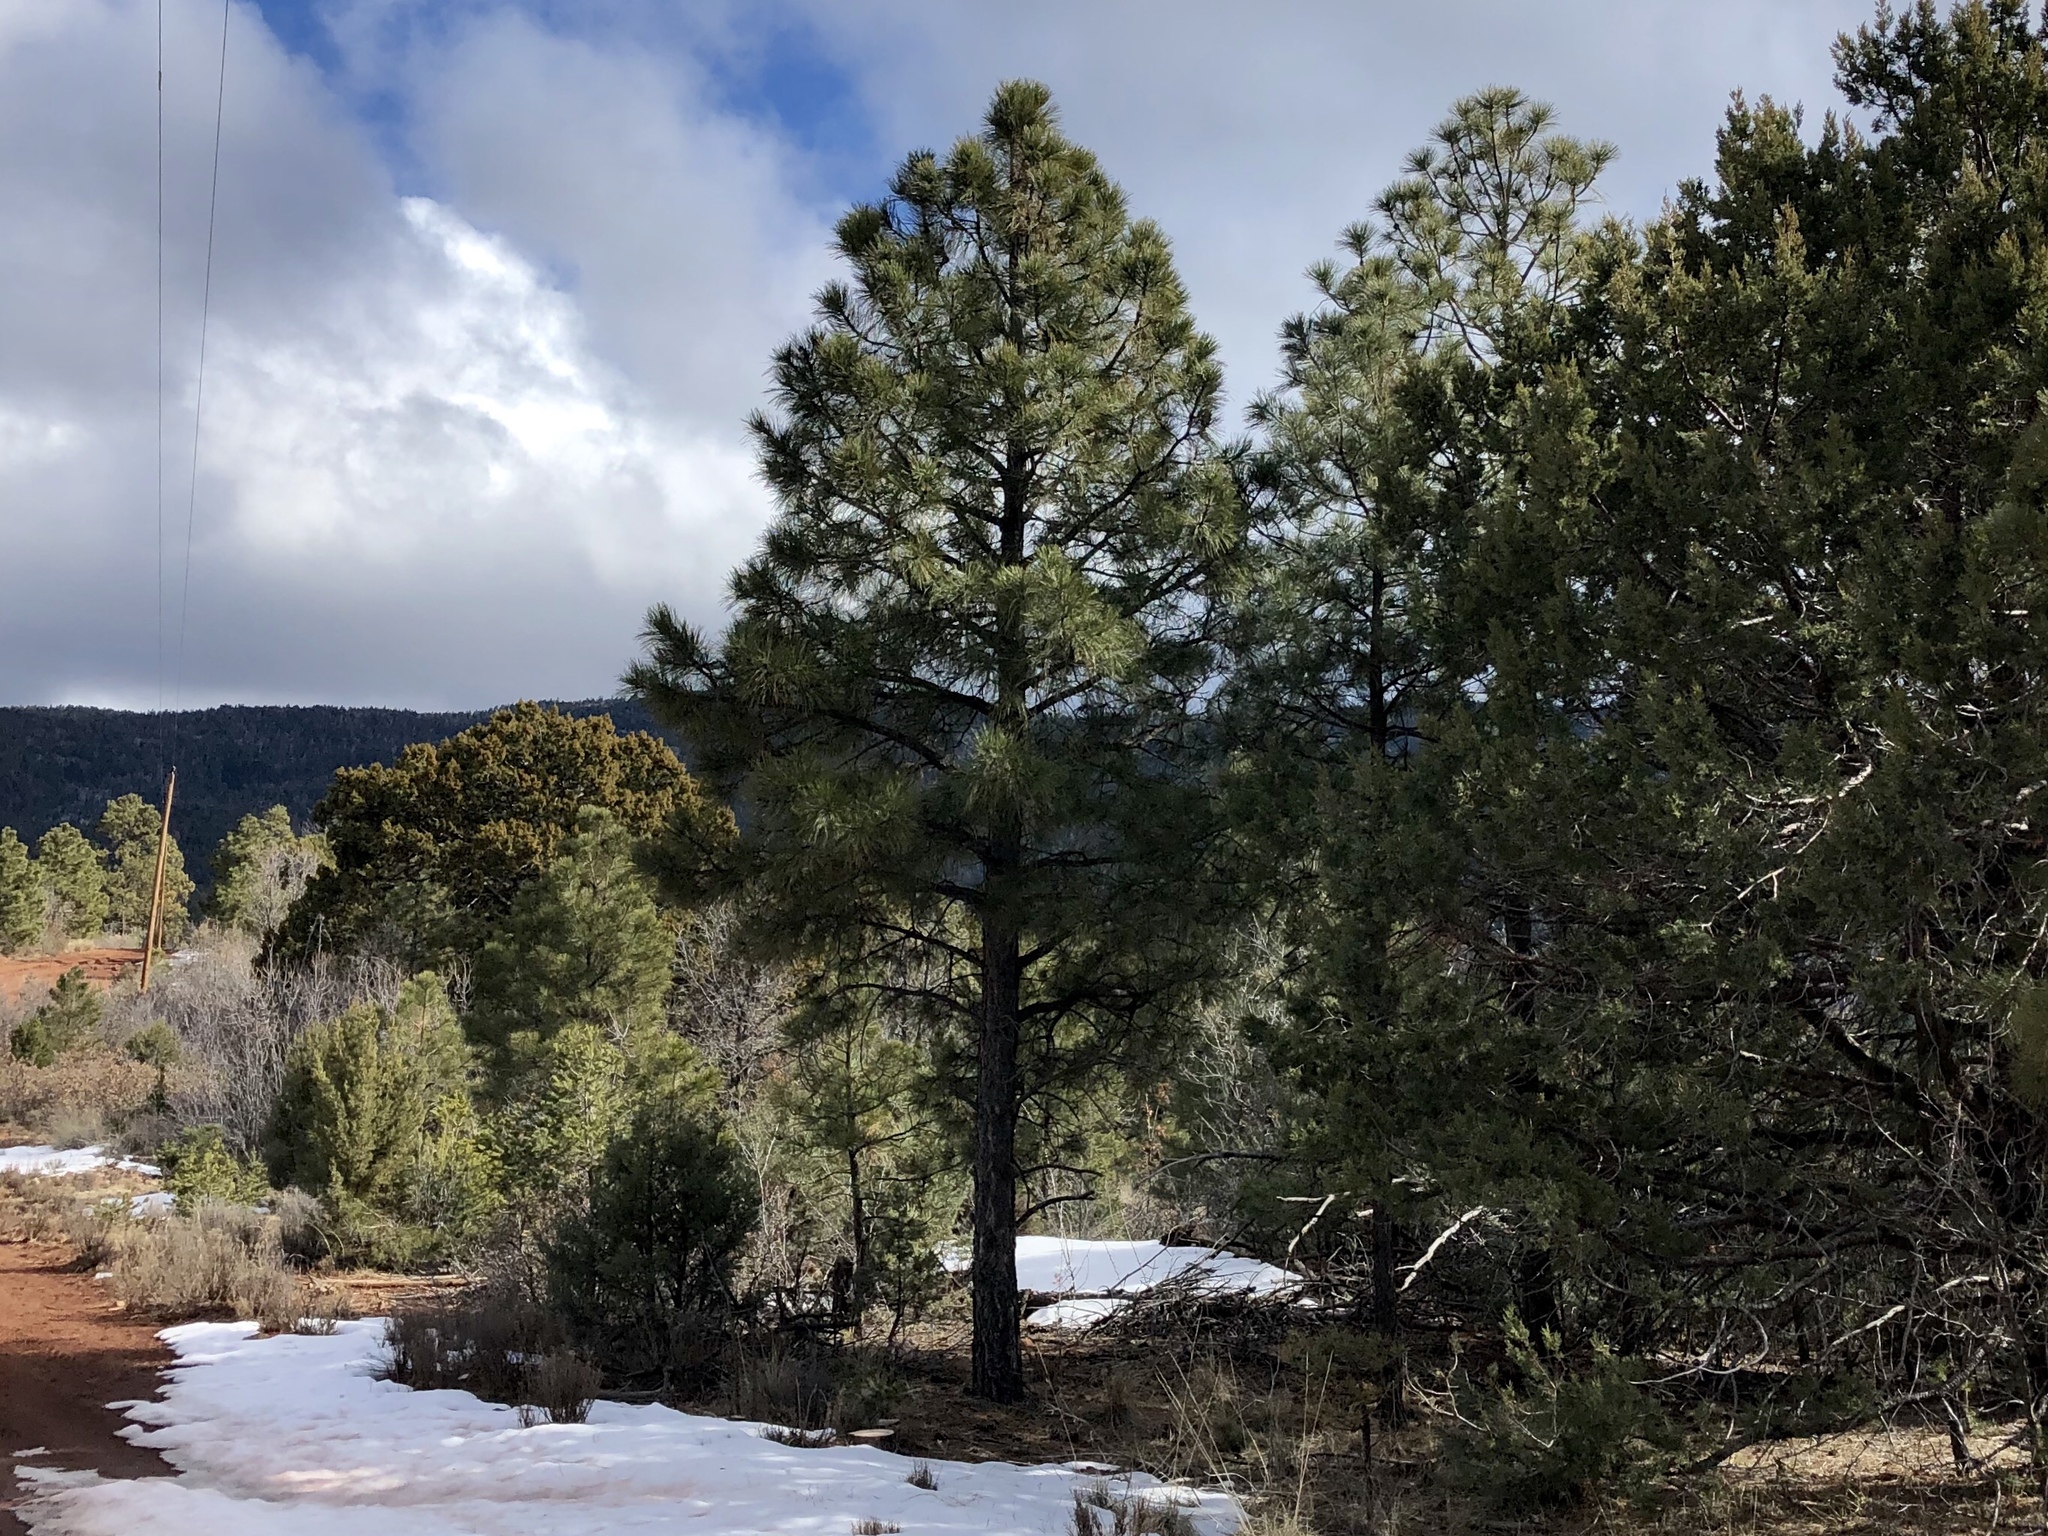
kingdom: Plantae
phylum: Tracheophyta
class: Pinopsida
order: Pinales
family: Pinaceae
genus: Pinus
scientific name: Pinus ponderosa
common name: Western yellow-pine
